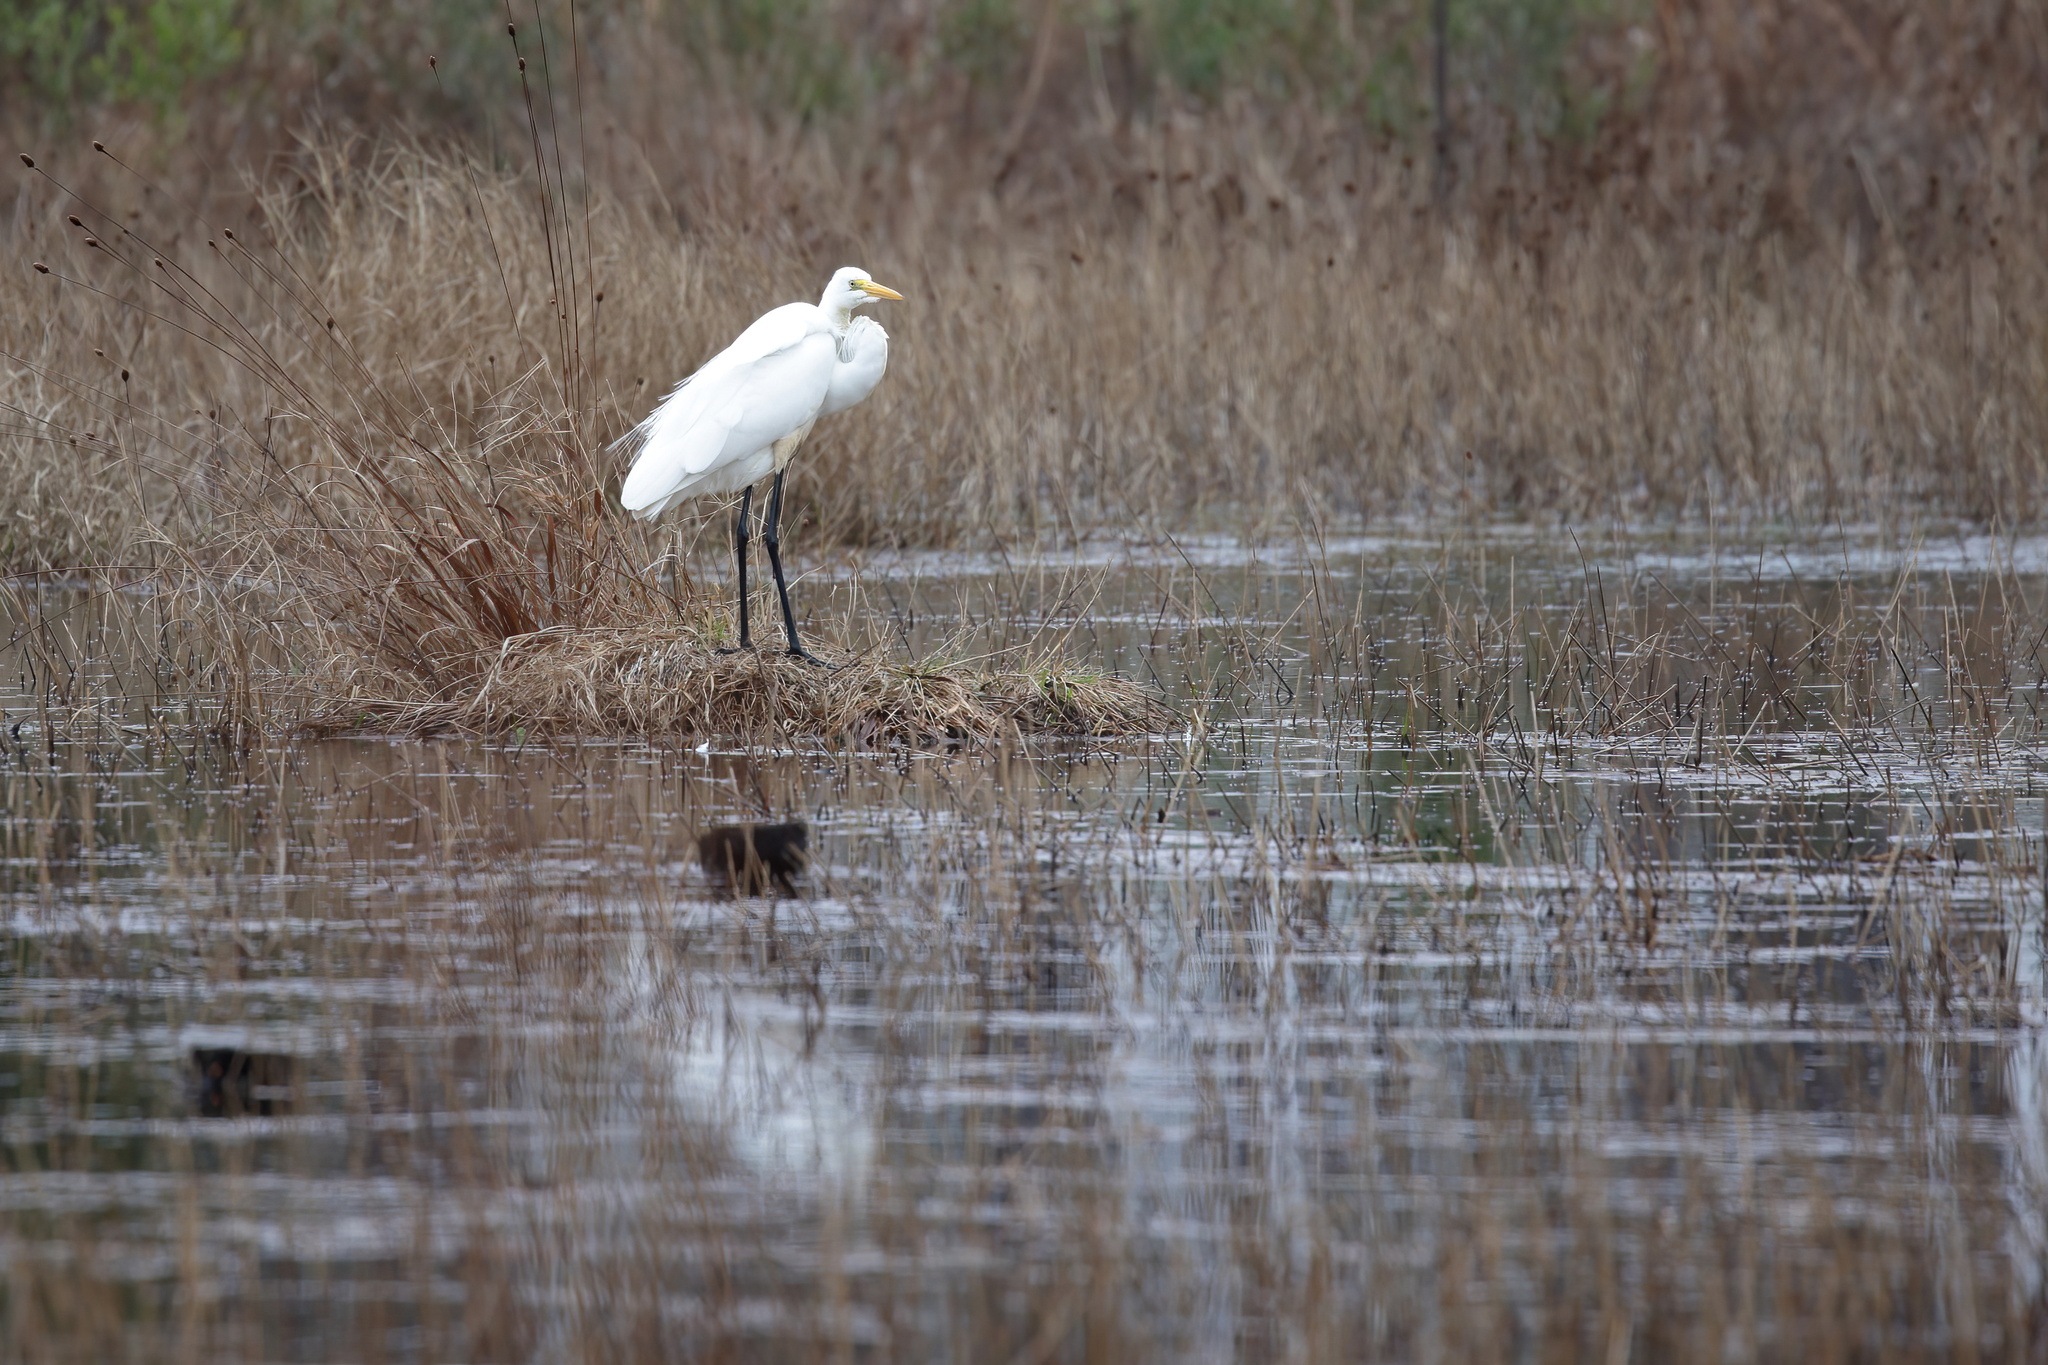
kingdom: Animalia
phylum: Chordata
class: Aves
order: Pelecaniformes
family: Ardeidae
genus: Ardea
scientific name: Ardea alba
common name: Great egret
